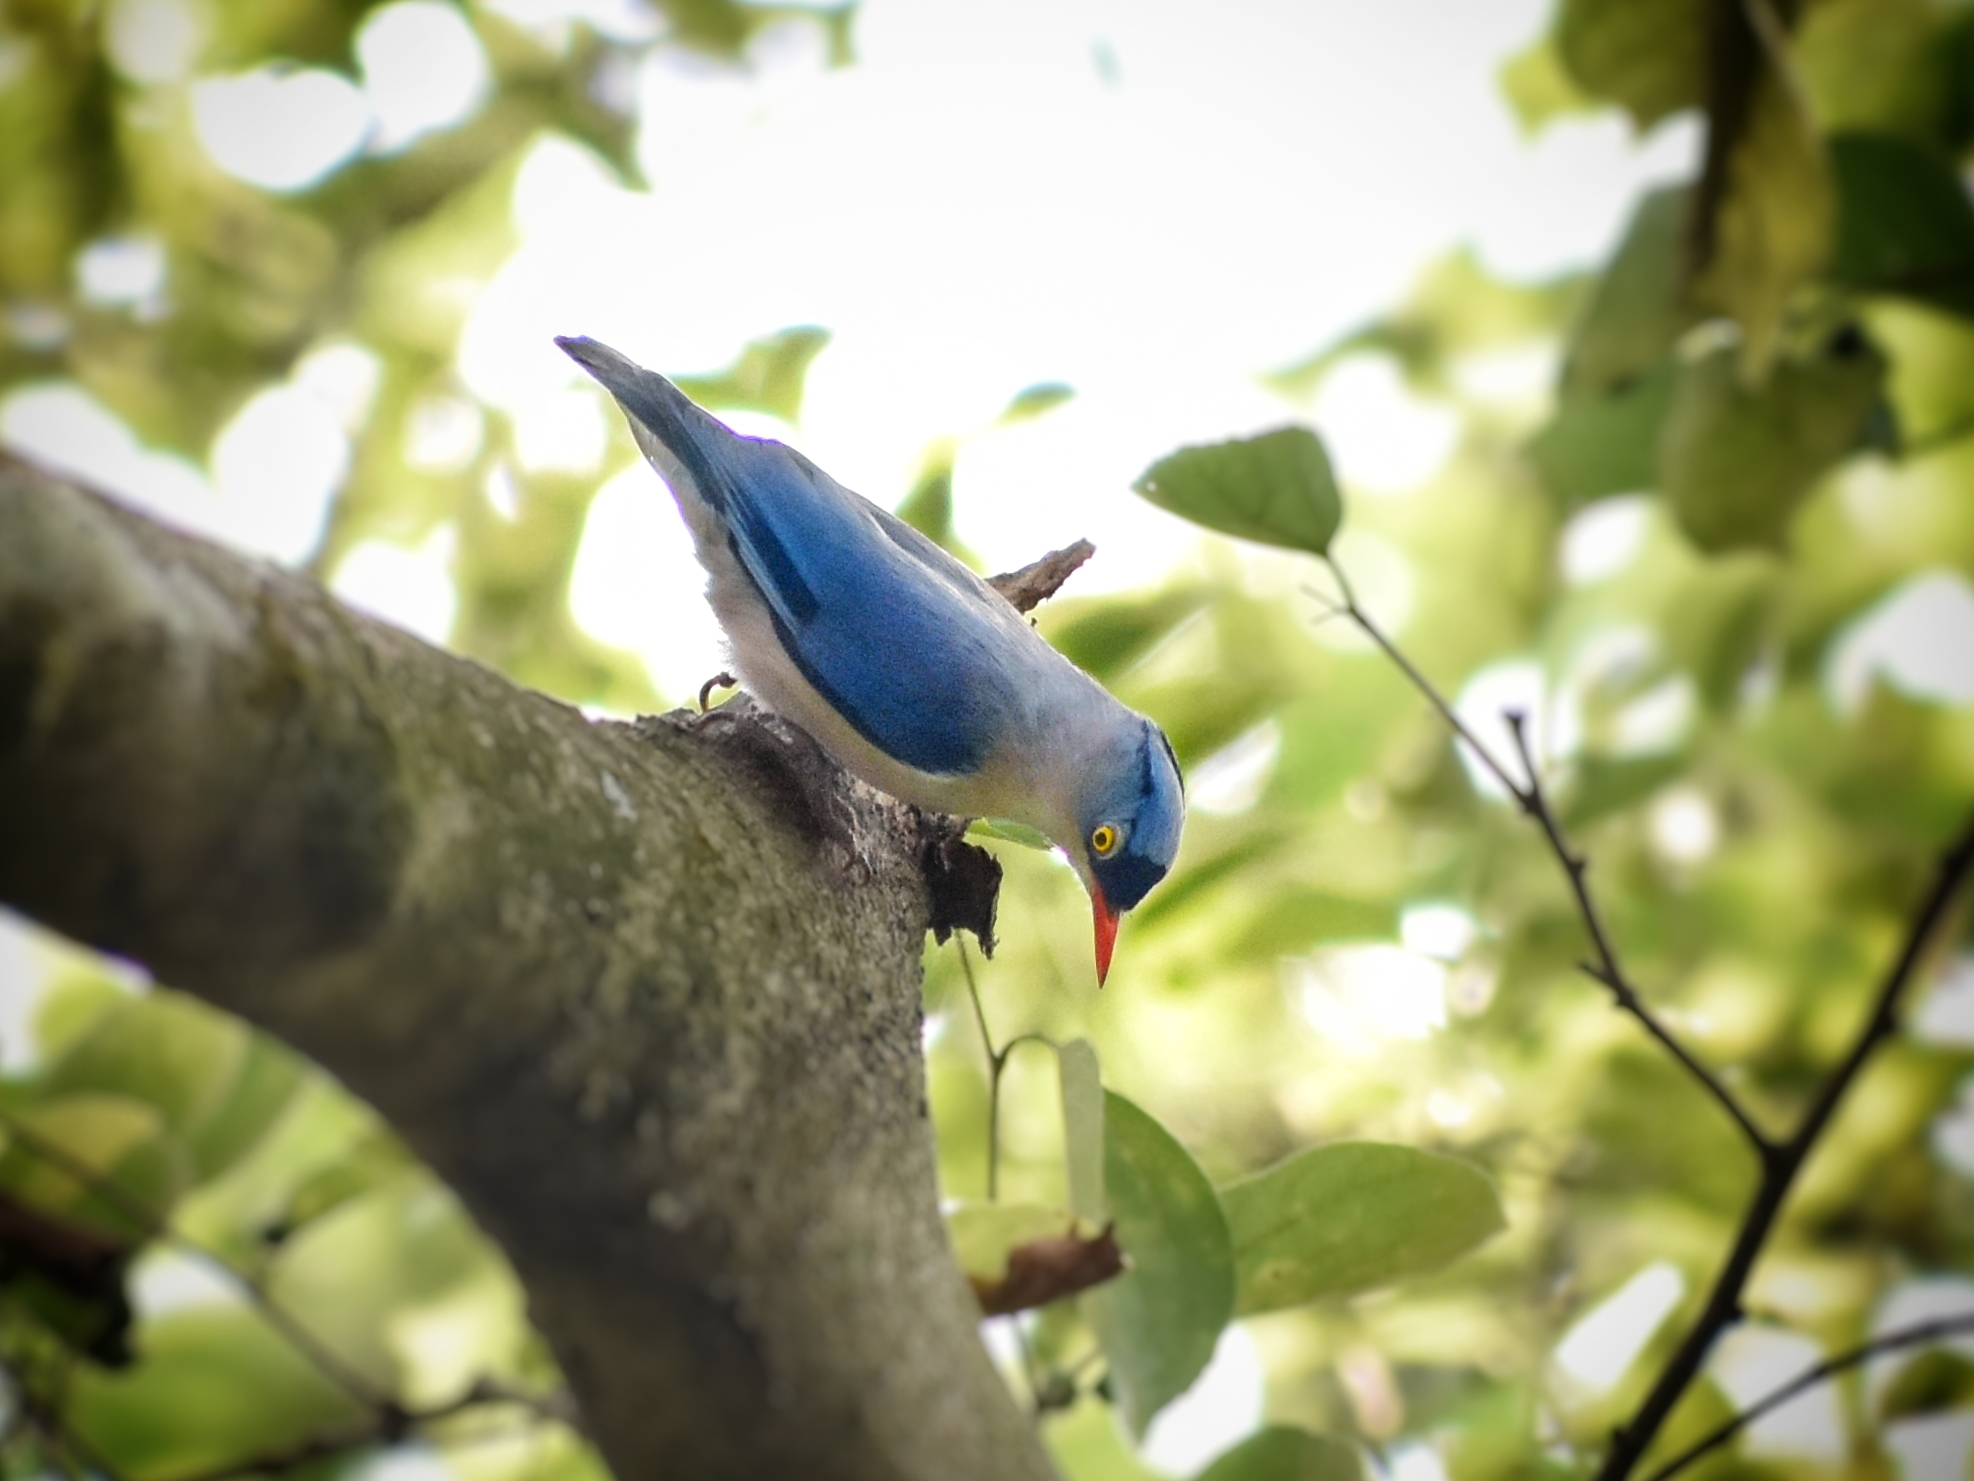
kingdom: Animalia
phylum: Chordata
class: Aves
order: Passeriformes
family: Sittidae
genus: Sitta
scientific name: Sitta frontalis
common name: Velvet-fronted nuthatch
